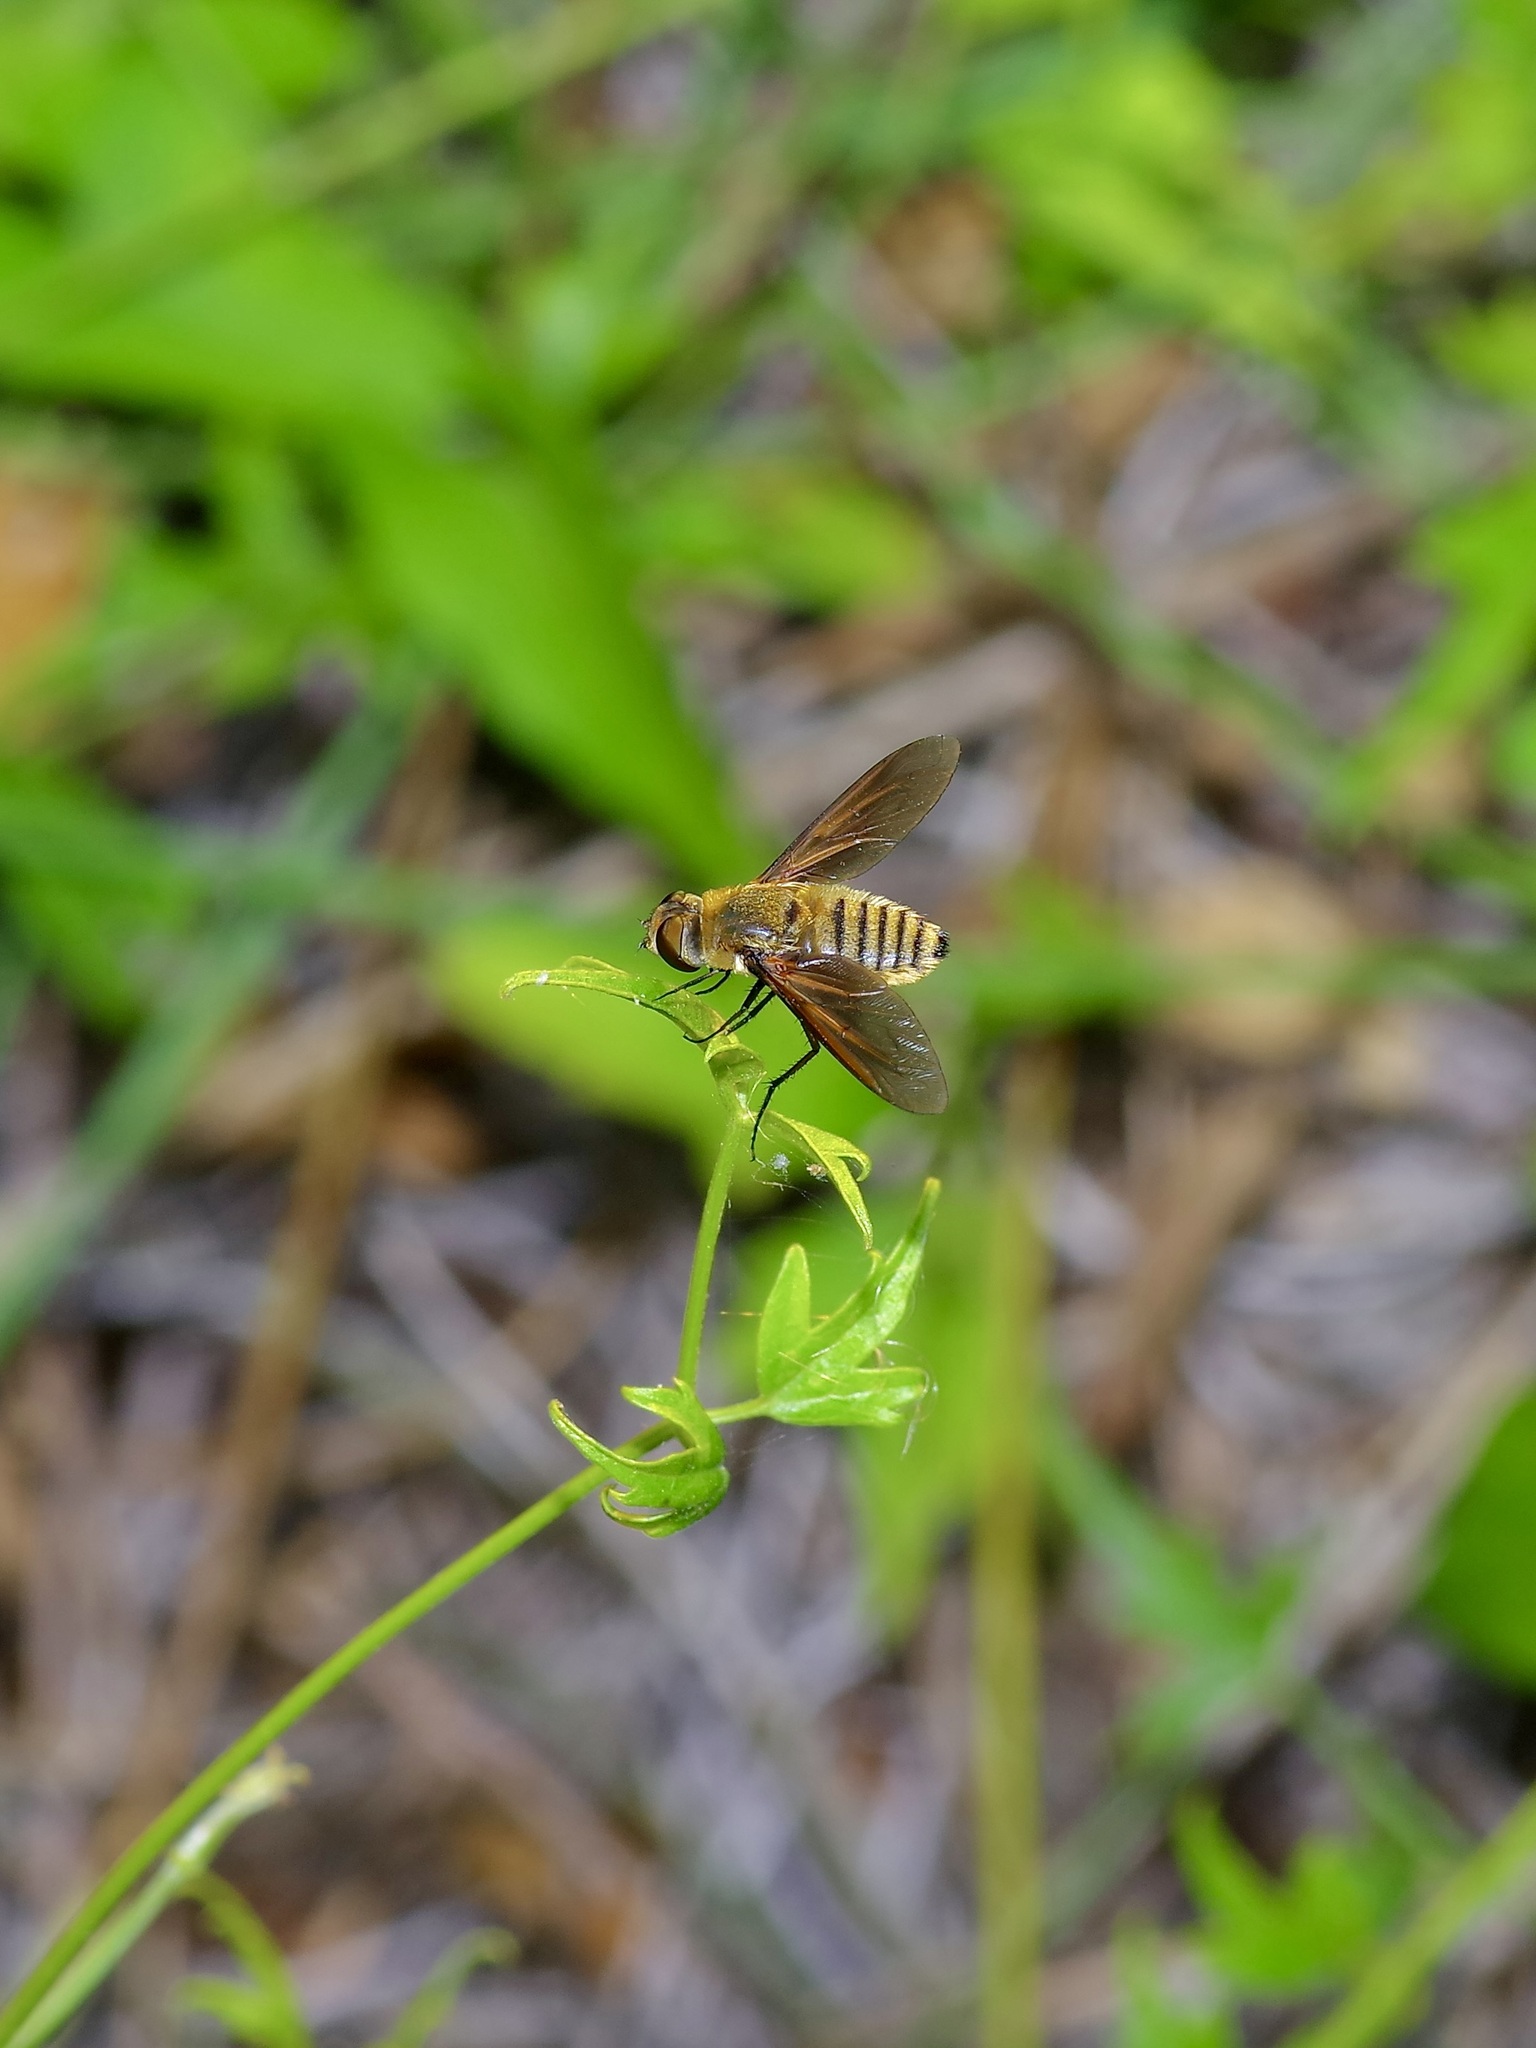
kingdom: Animalia
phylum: Arthropoda
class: Insecta
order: Diptera
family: Bombyliidae
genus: Poecilanthrax
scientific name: Poecilanthrax lucifer
